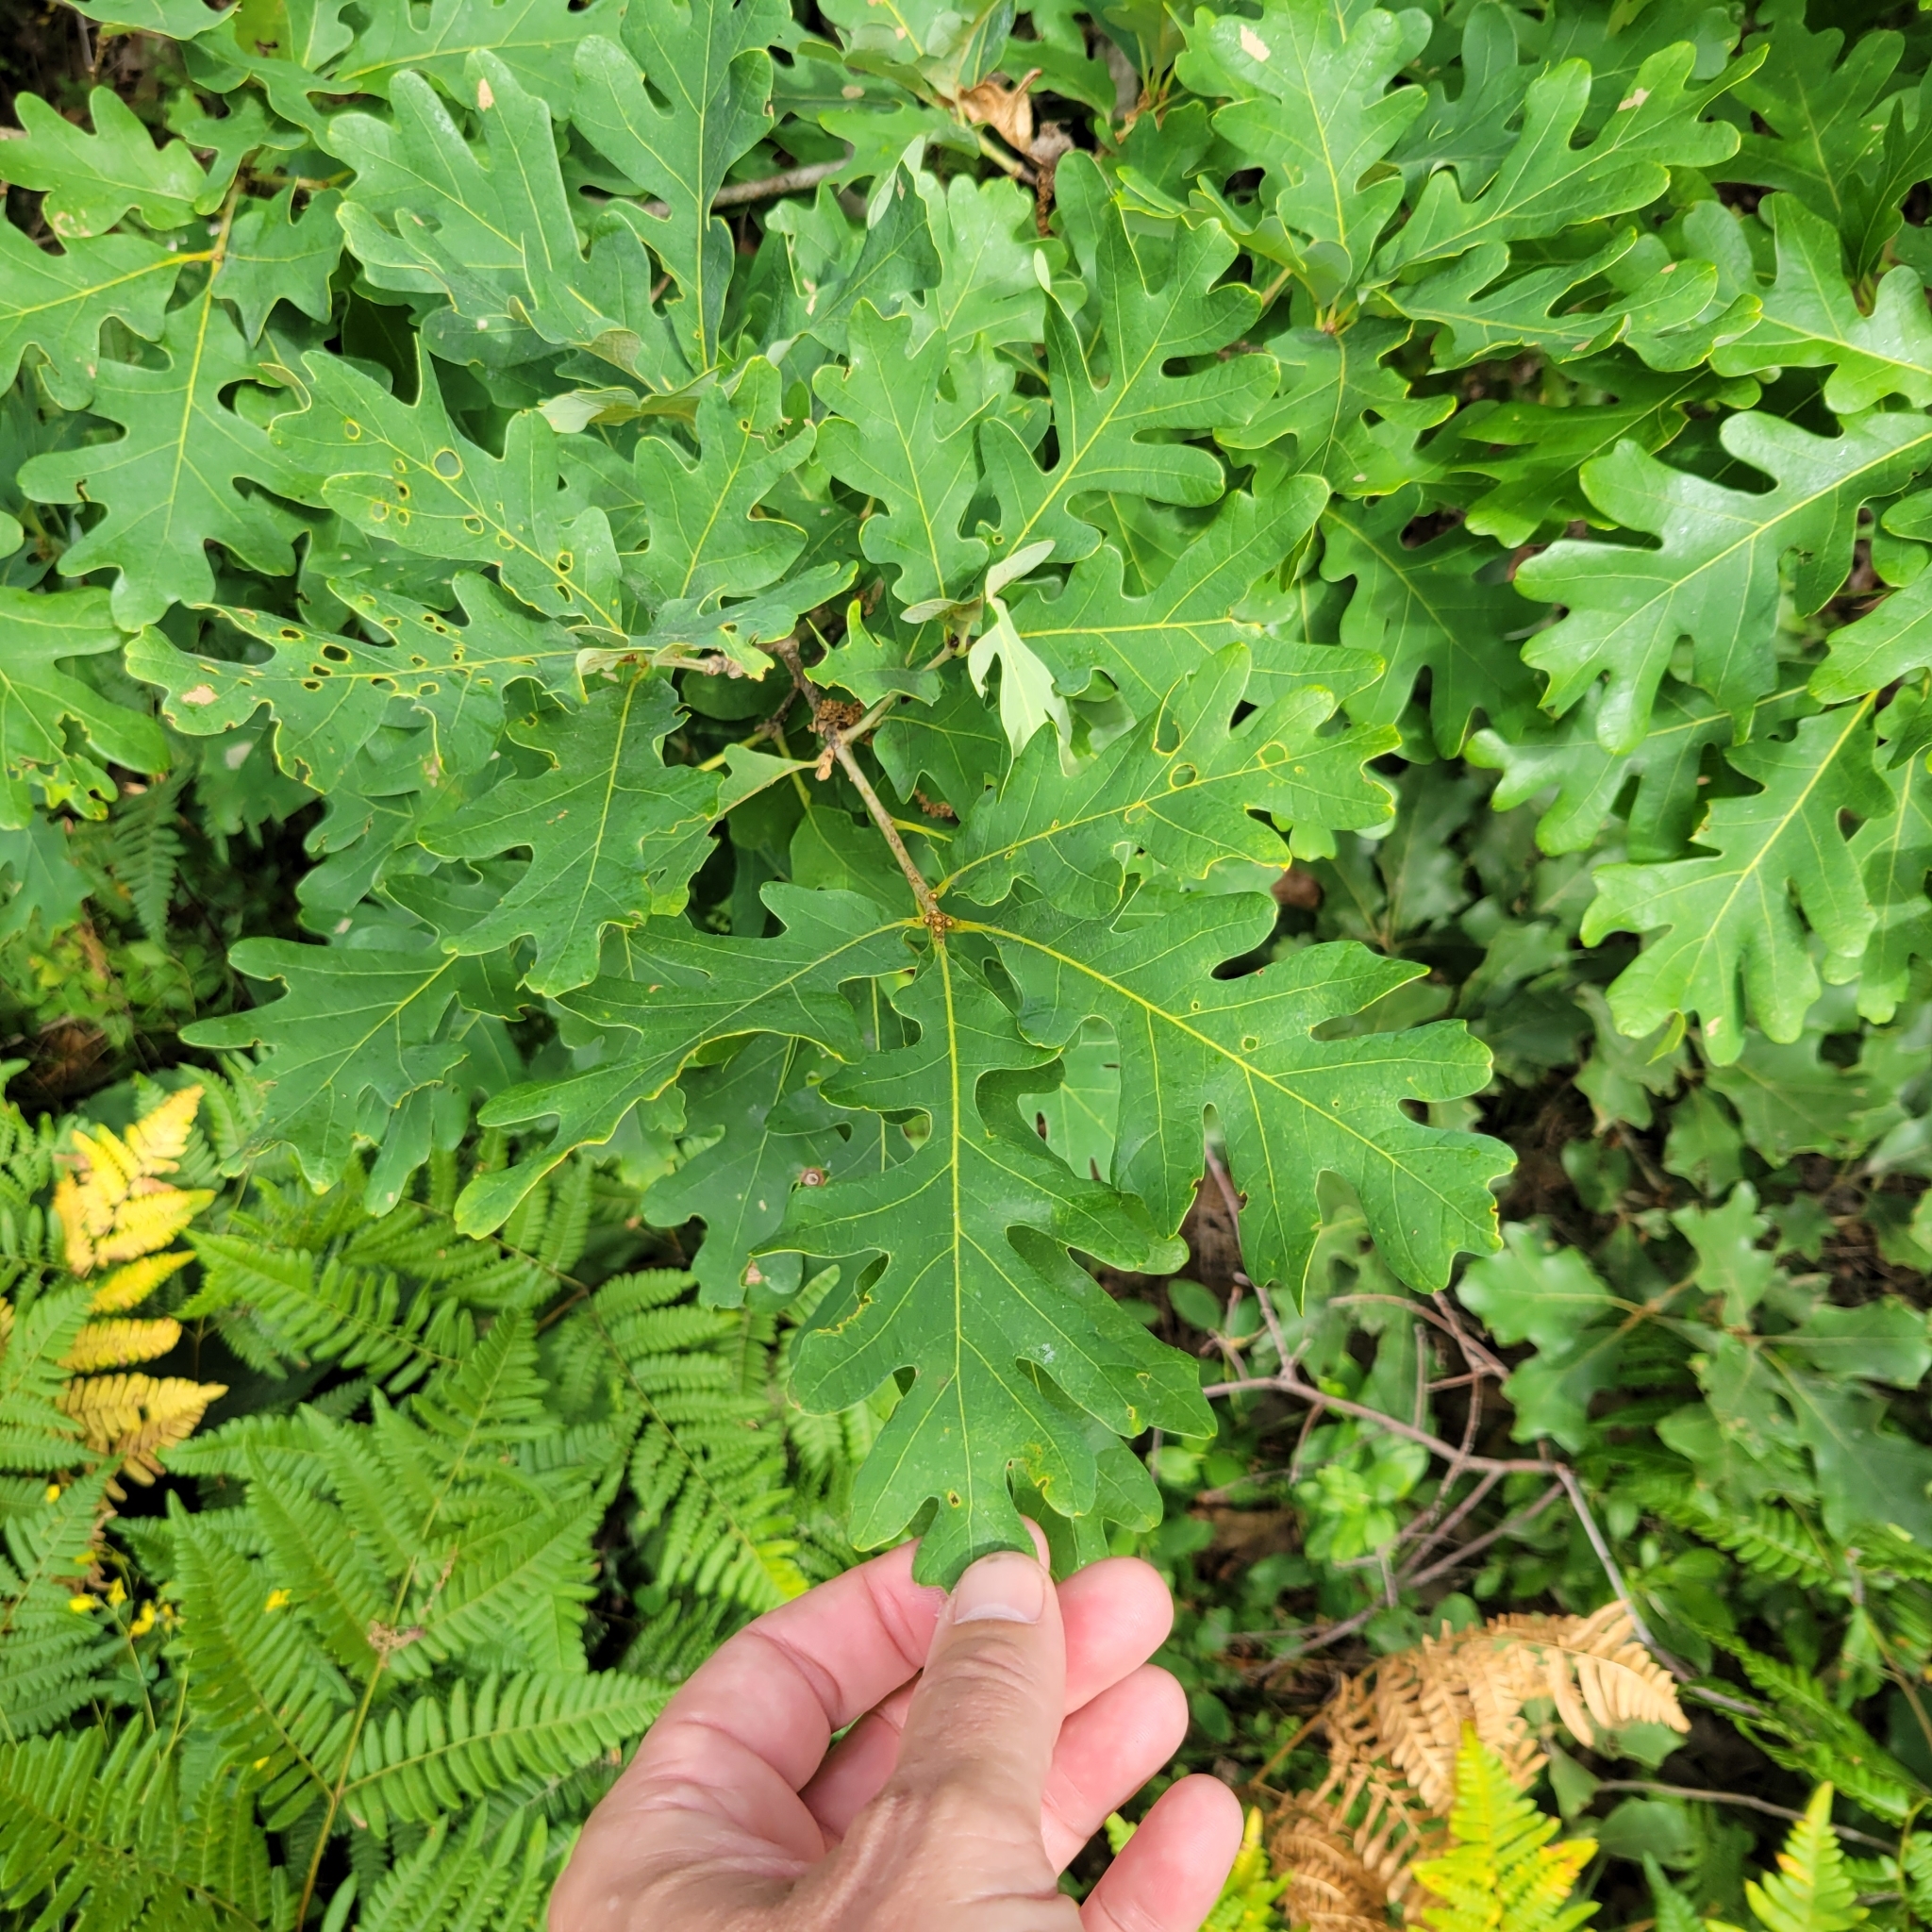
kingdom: Plantae
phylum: Tracheophyta
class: Magnoliopsida
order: Fagales
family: Fagaceae
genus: Quercus
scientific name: Quercus alba
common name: White oak
